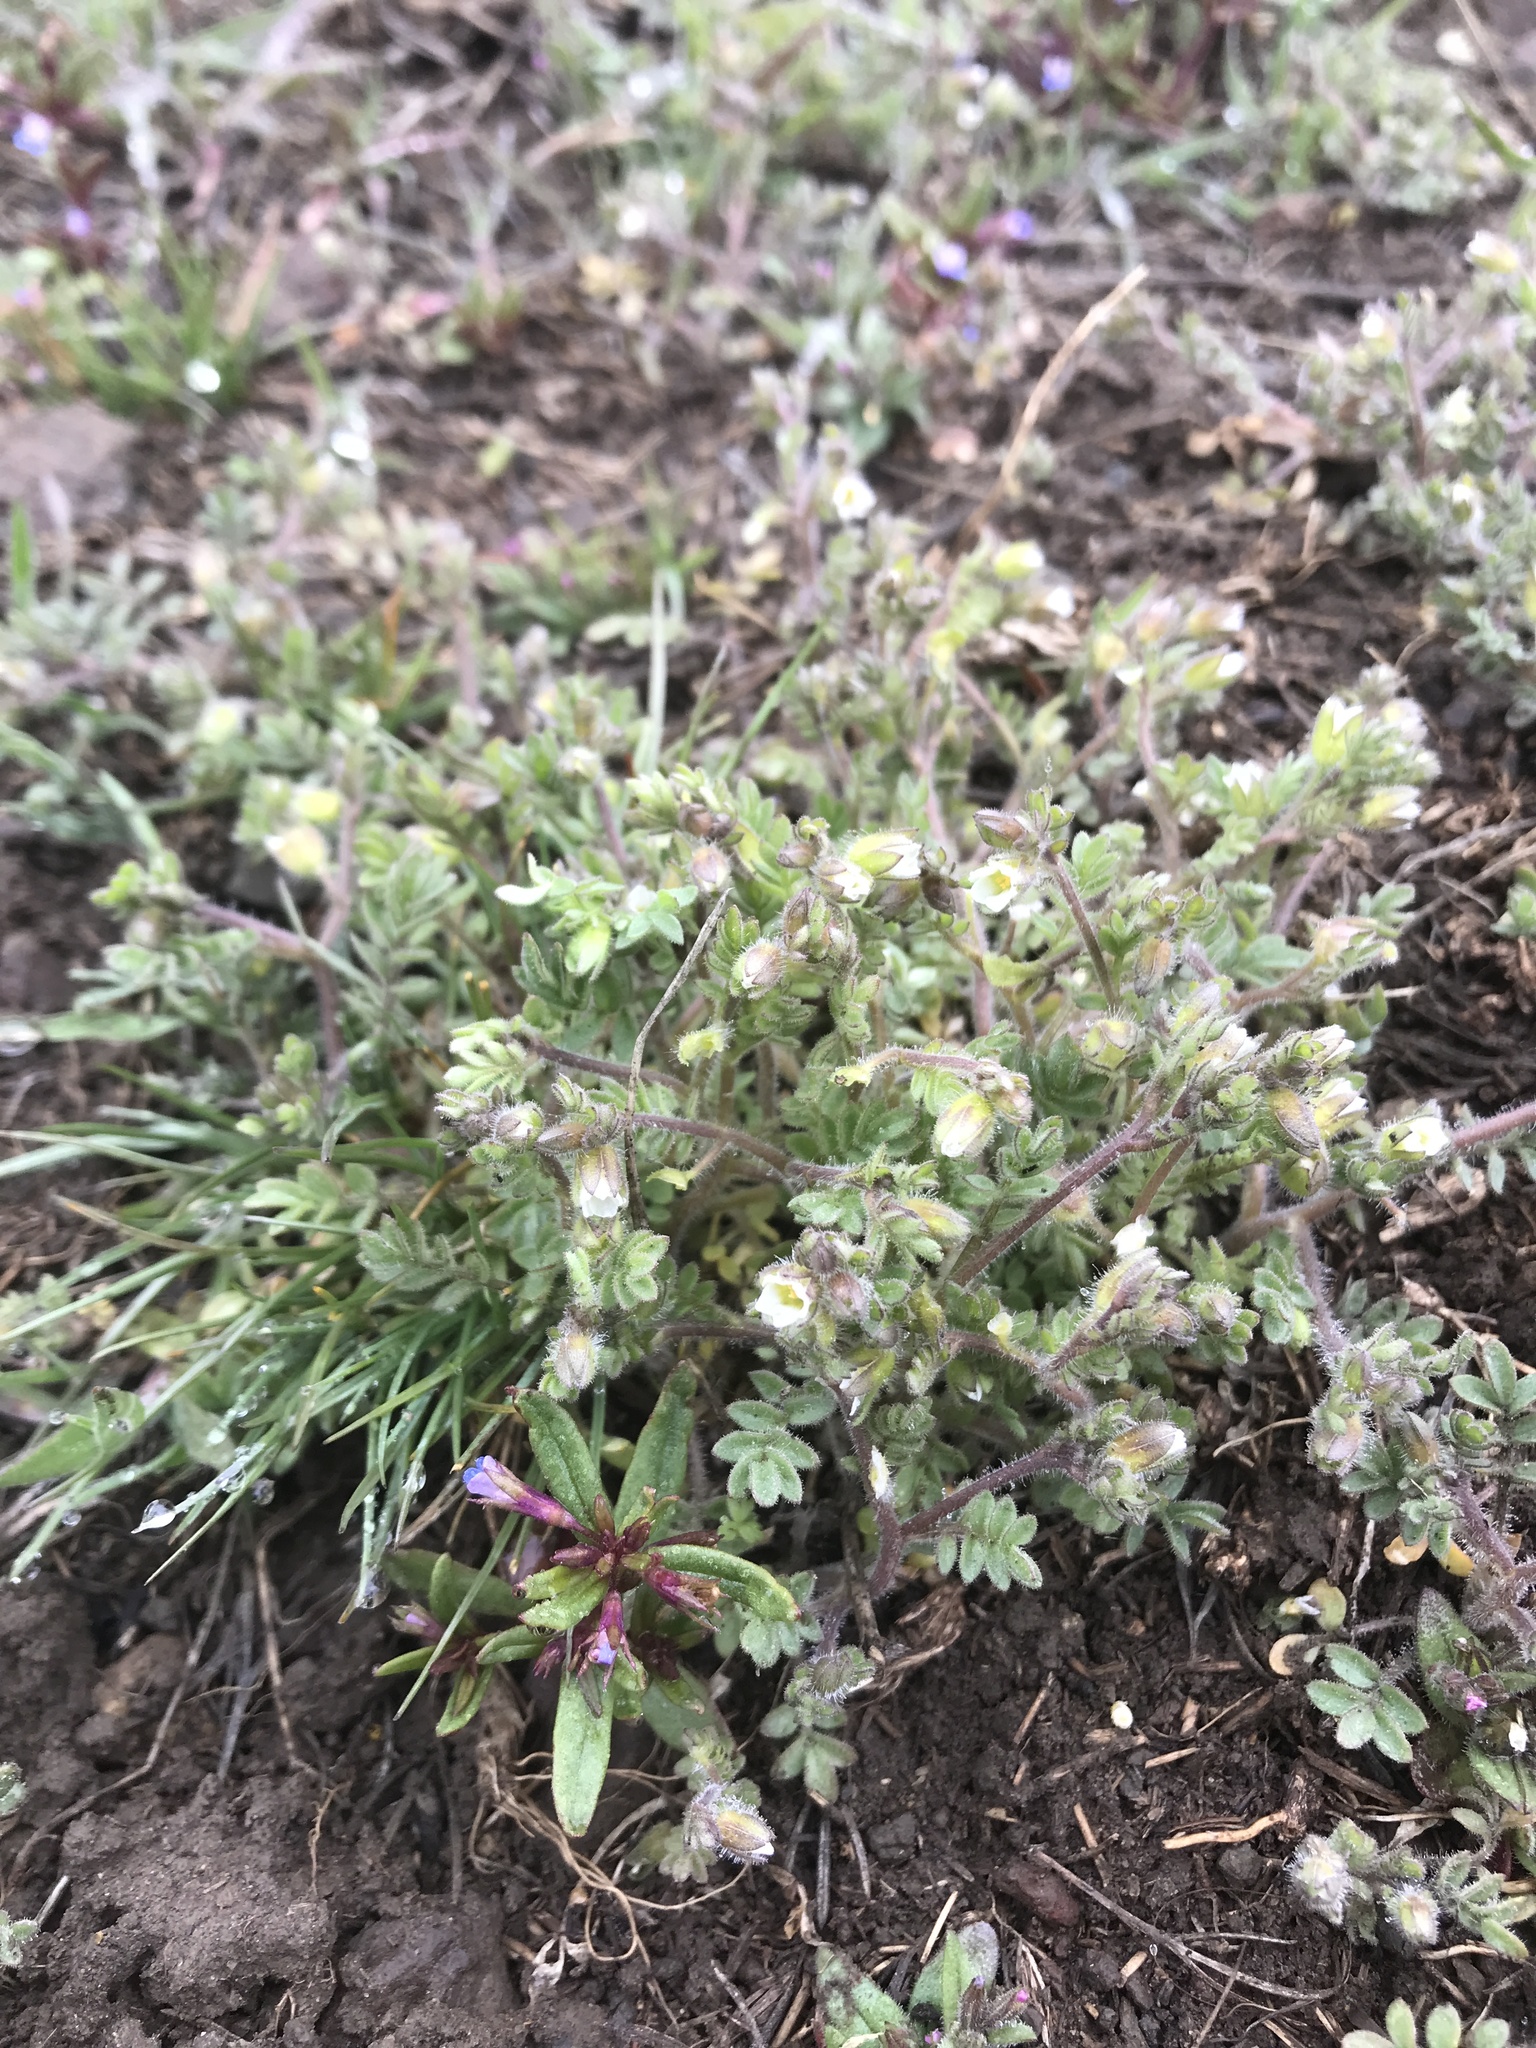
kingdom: Plantae
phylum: Tracheophyta
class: Magnoliopsida
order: Ericales
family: Polemoniaceae
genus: Polemonium
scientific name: Polemonium micranthum
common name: Annual jacob's-ladder
